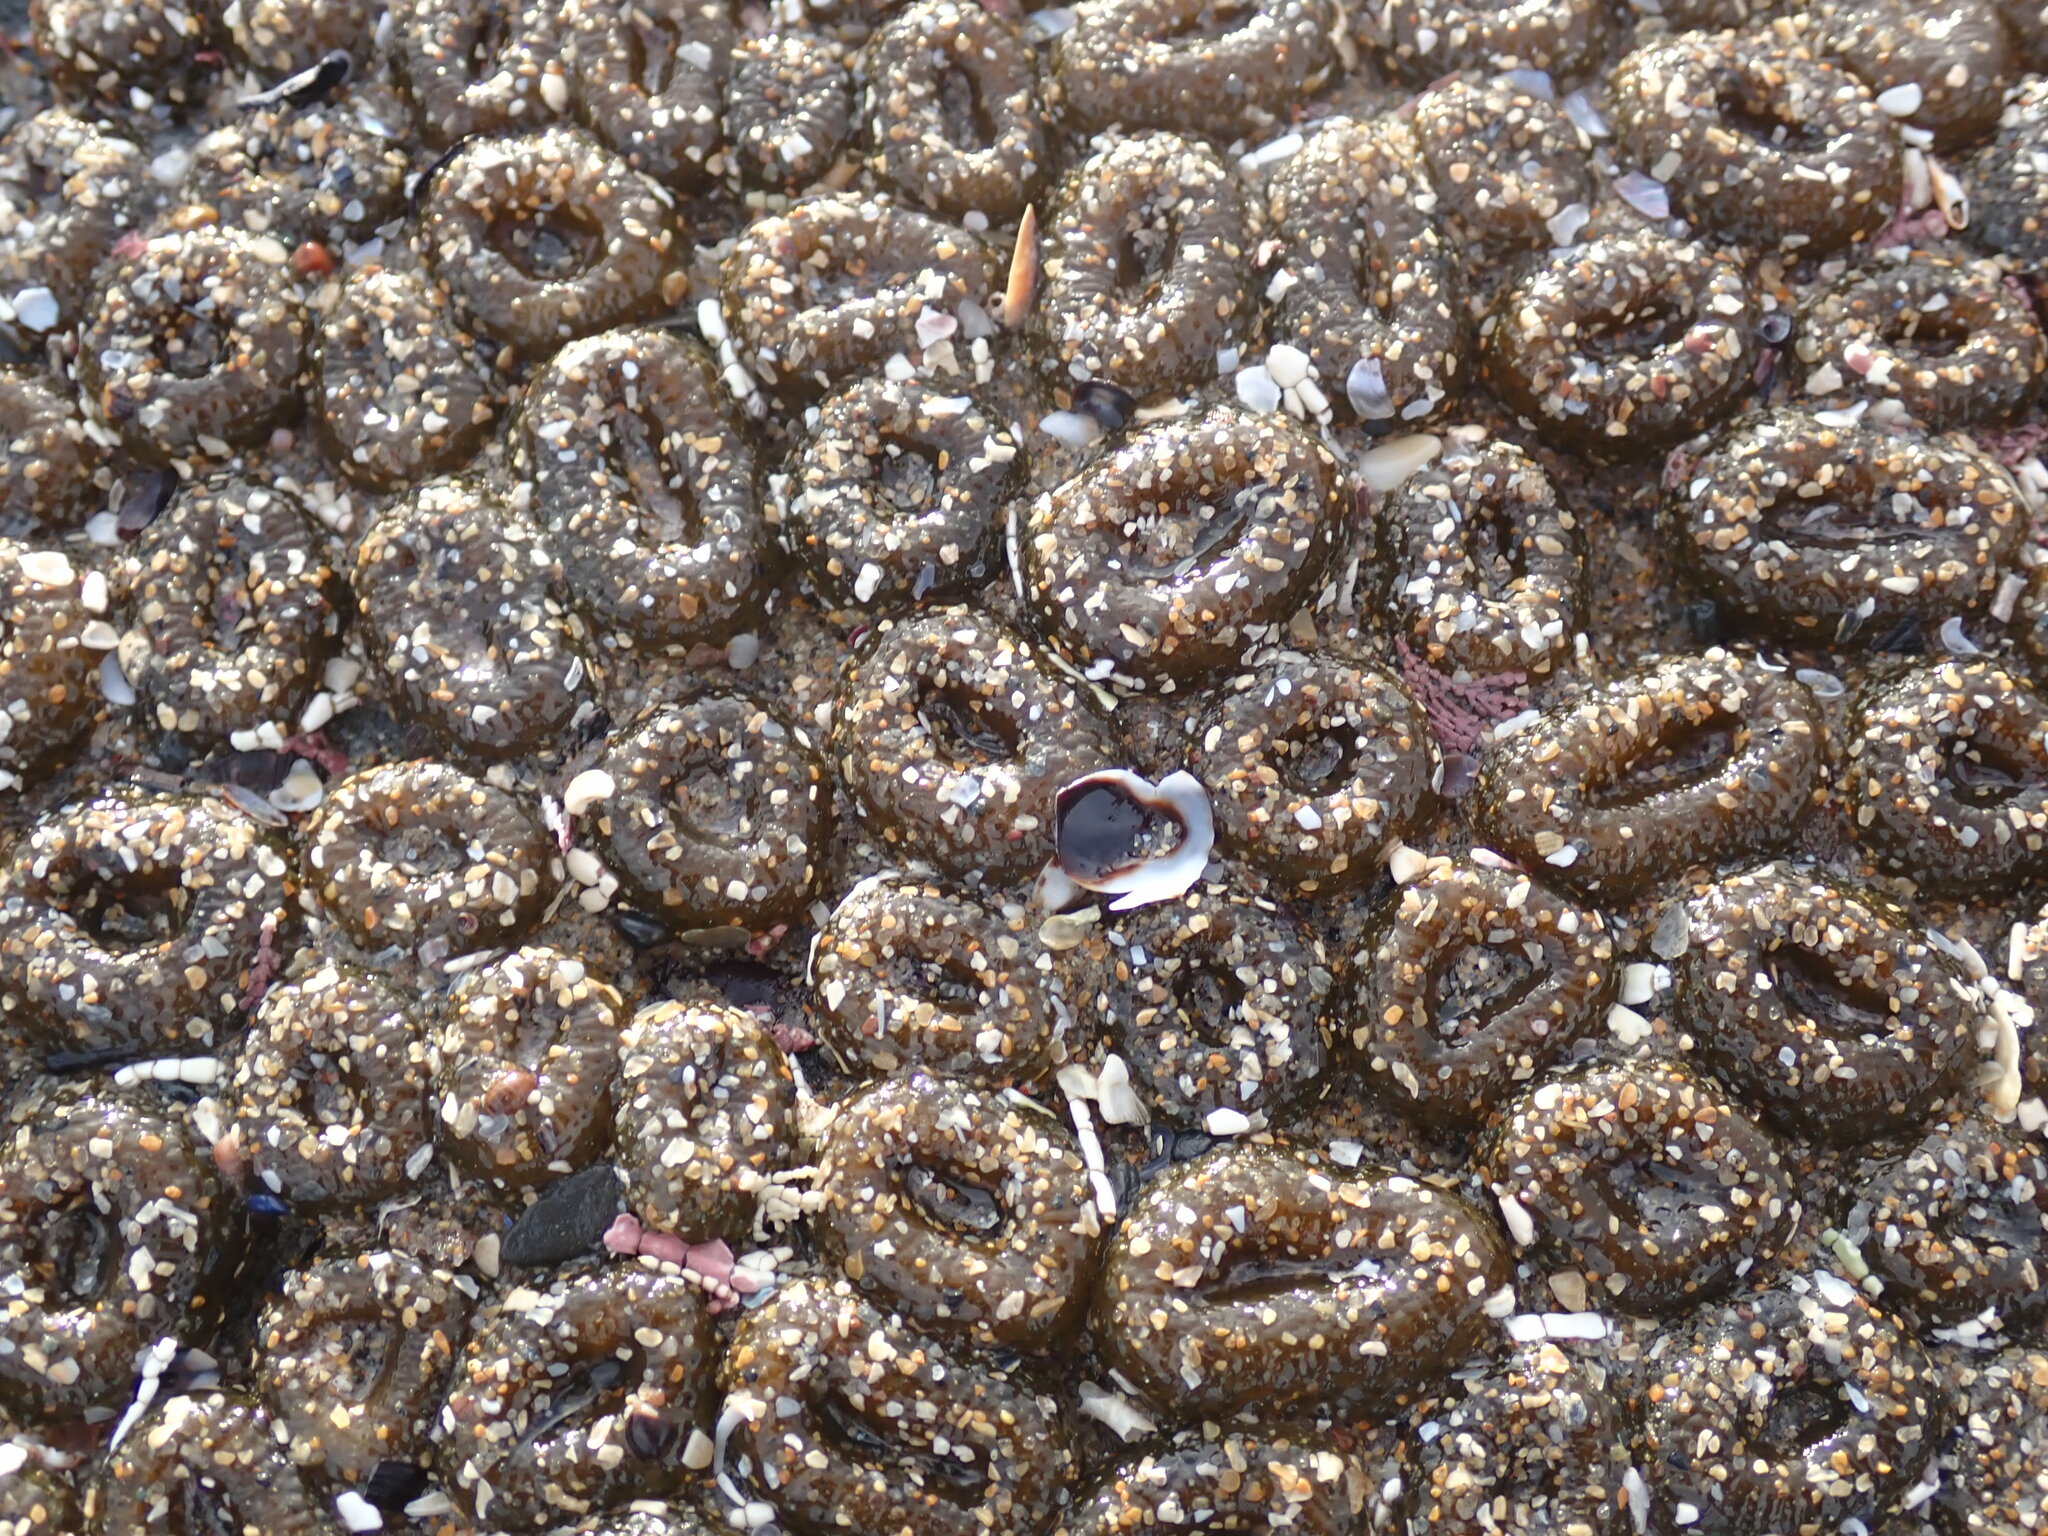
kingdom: Animalia
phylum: Cnidaria
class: Anthozoa
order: Actiniaria
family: Actiniidae
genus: Anthopleura
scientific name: Anthopleura elegantissima
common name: Clonal anemone
